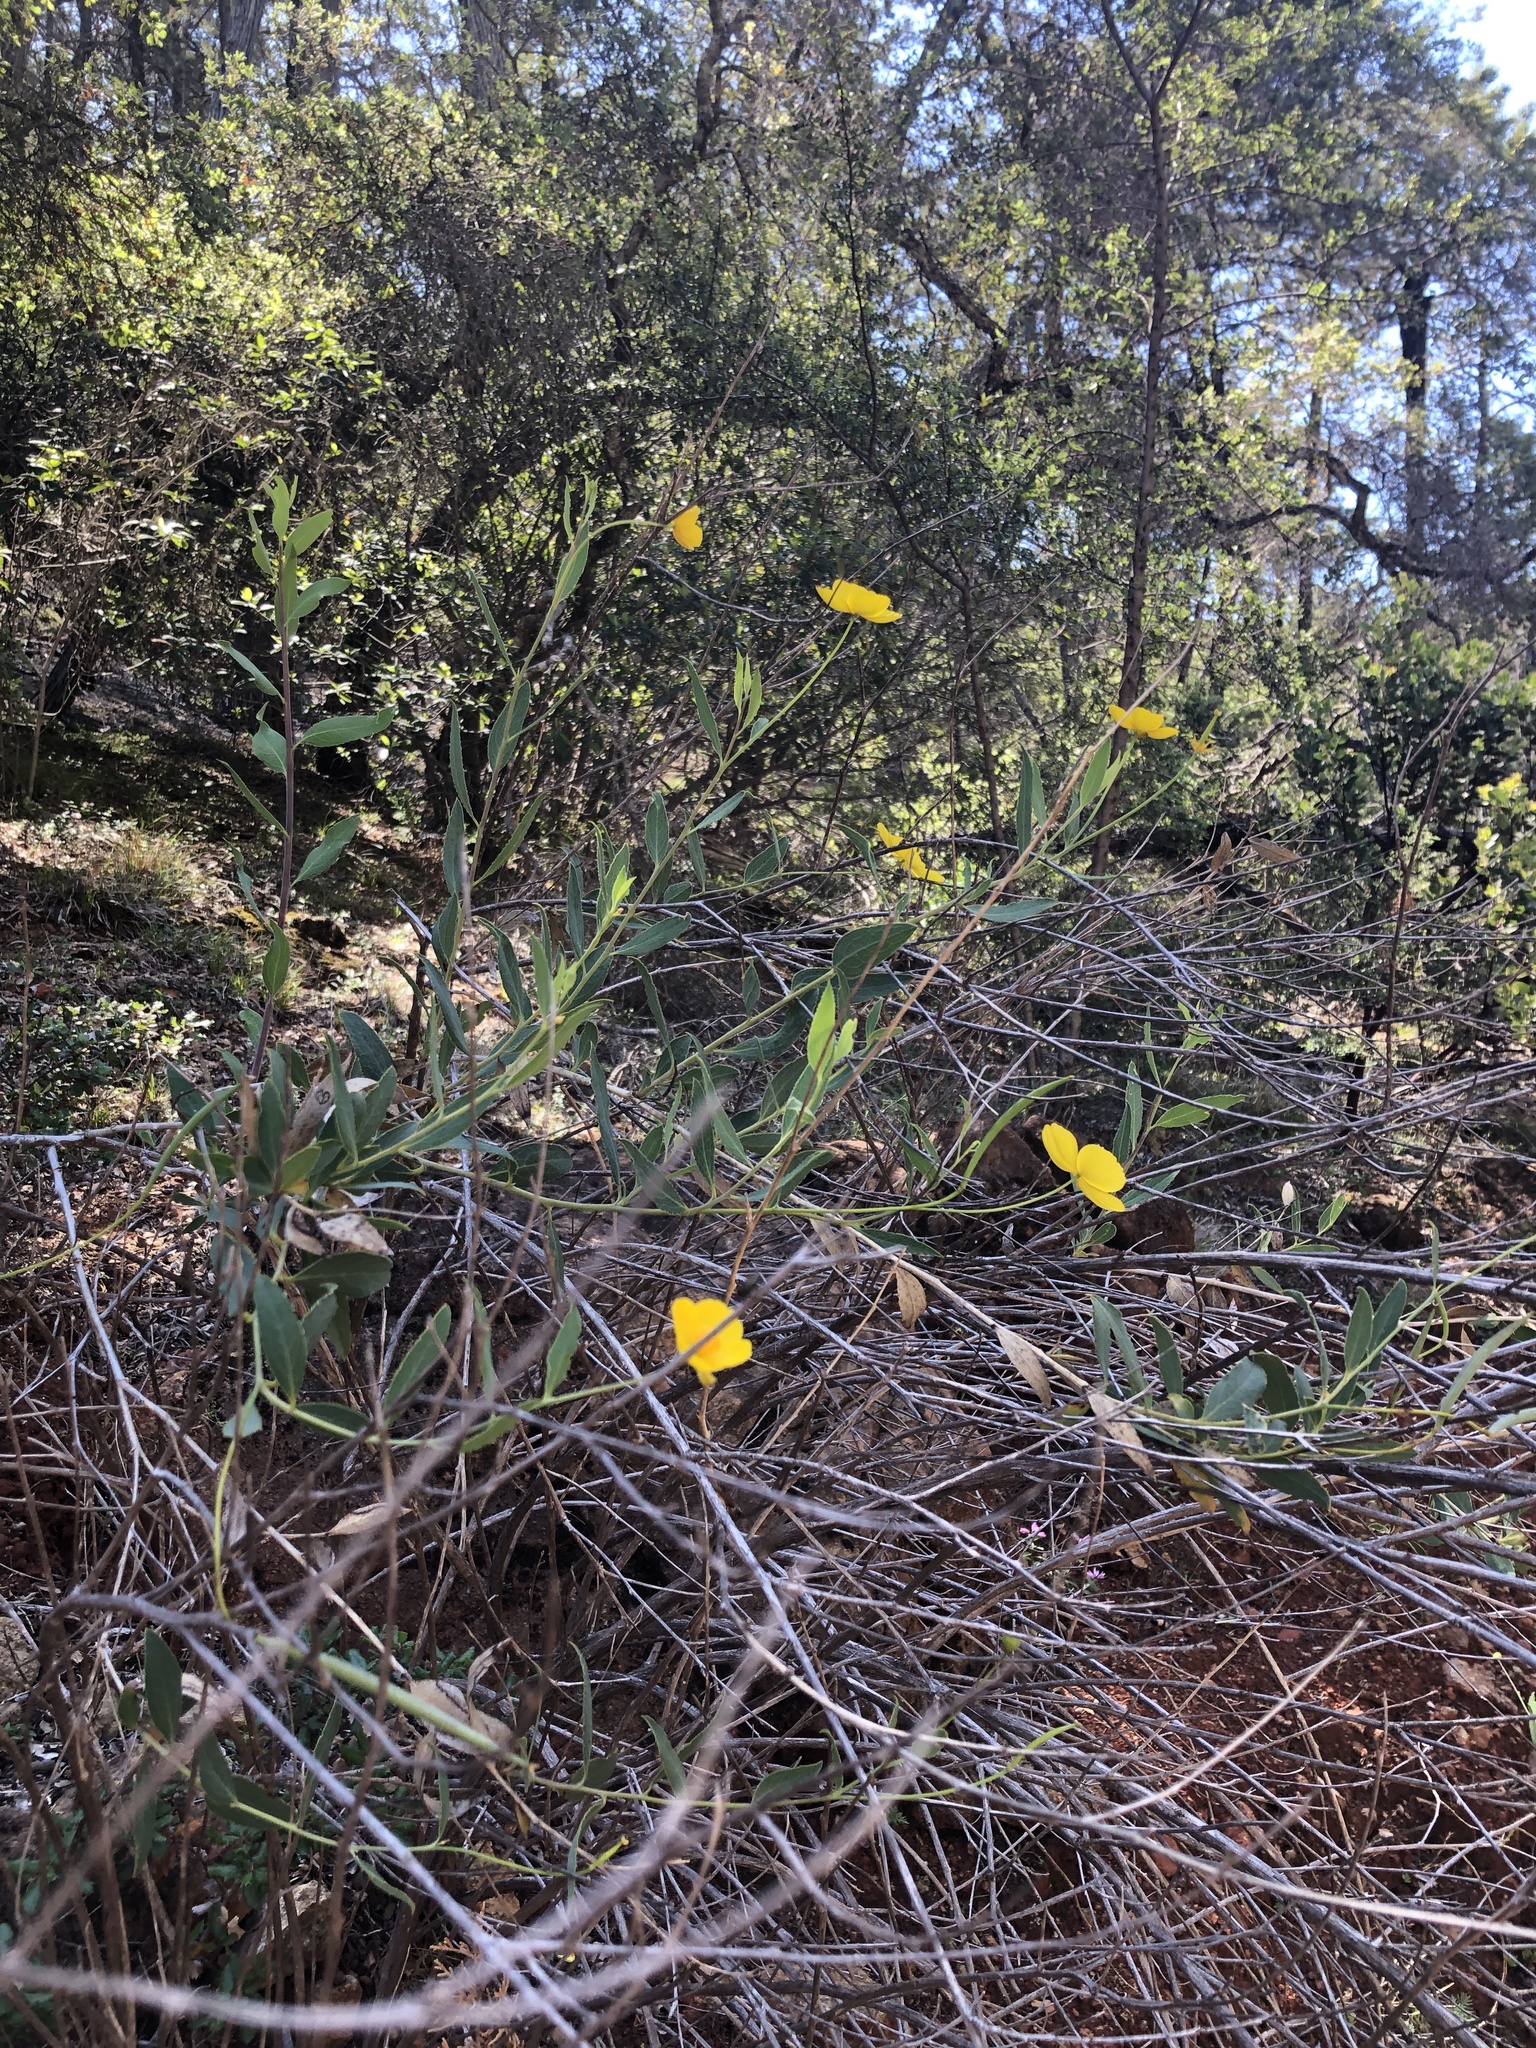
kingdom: Plantae
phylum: Tracheophyta
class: Magnoliopsida
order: Ranunculales
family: Papaveraceae
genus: Dendromecon
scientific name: Dendromecon rigida
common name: Tree poppy
